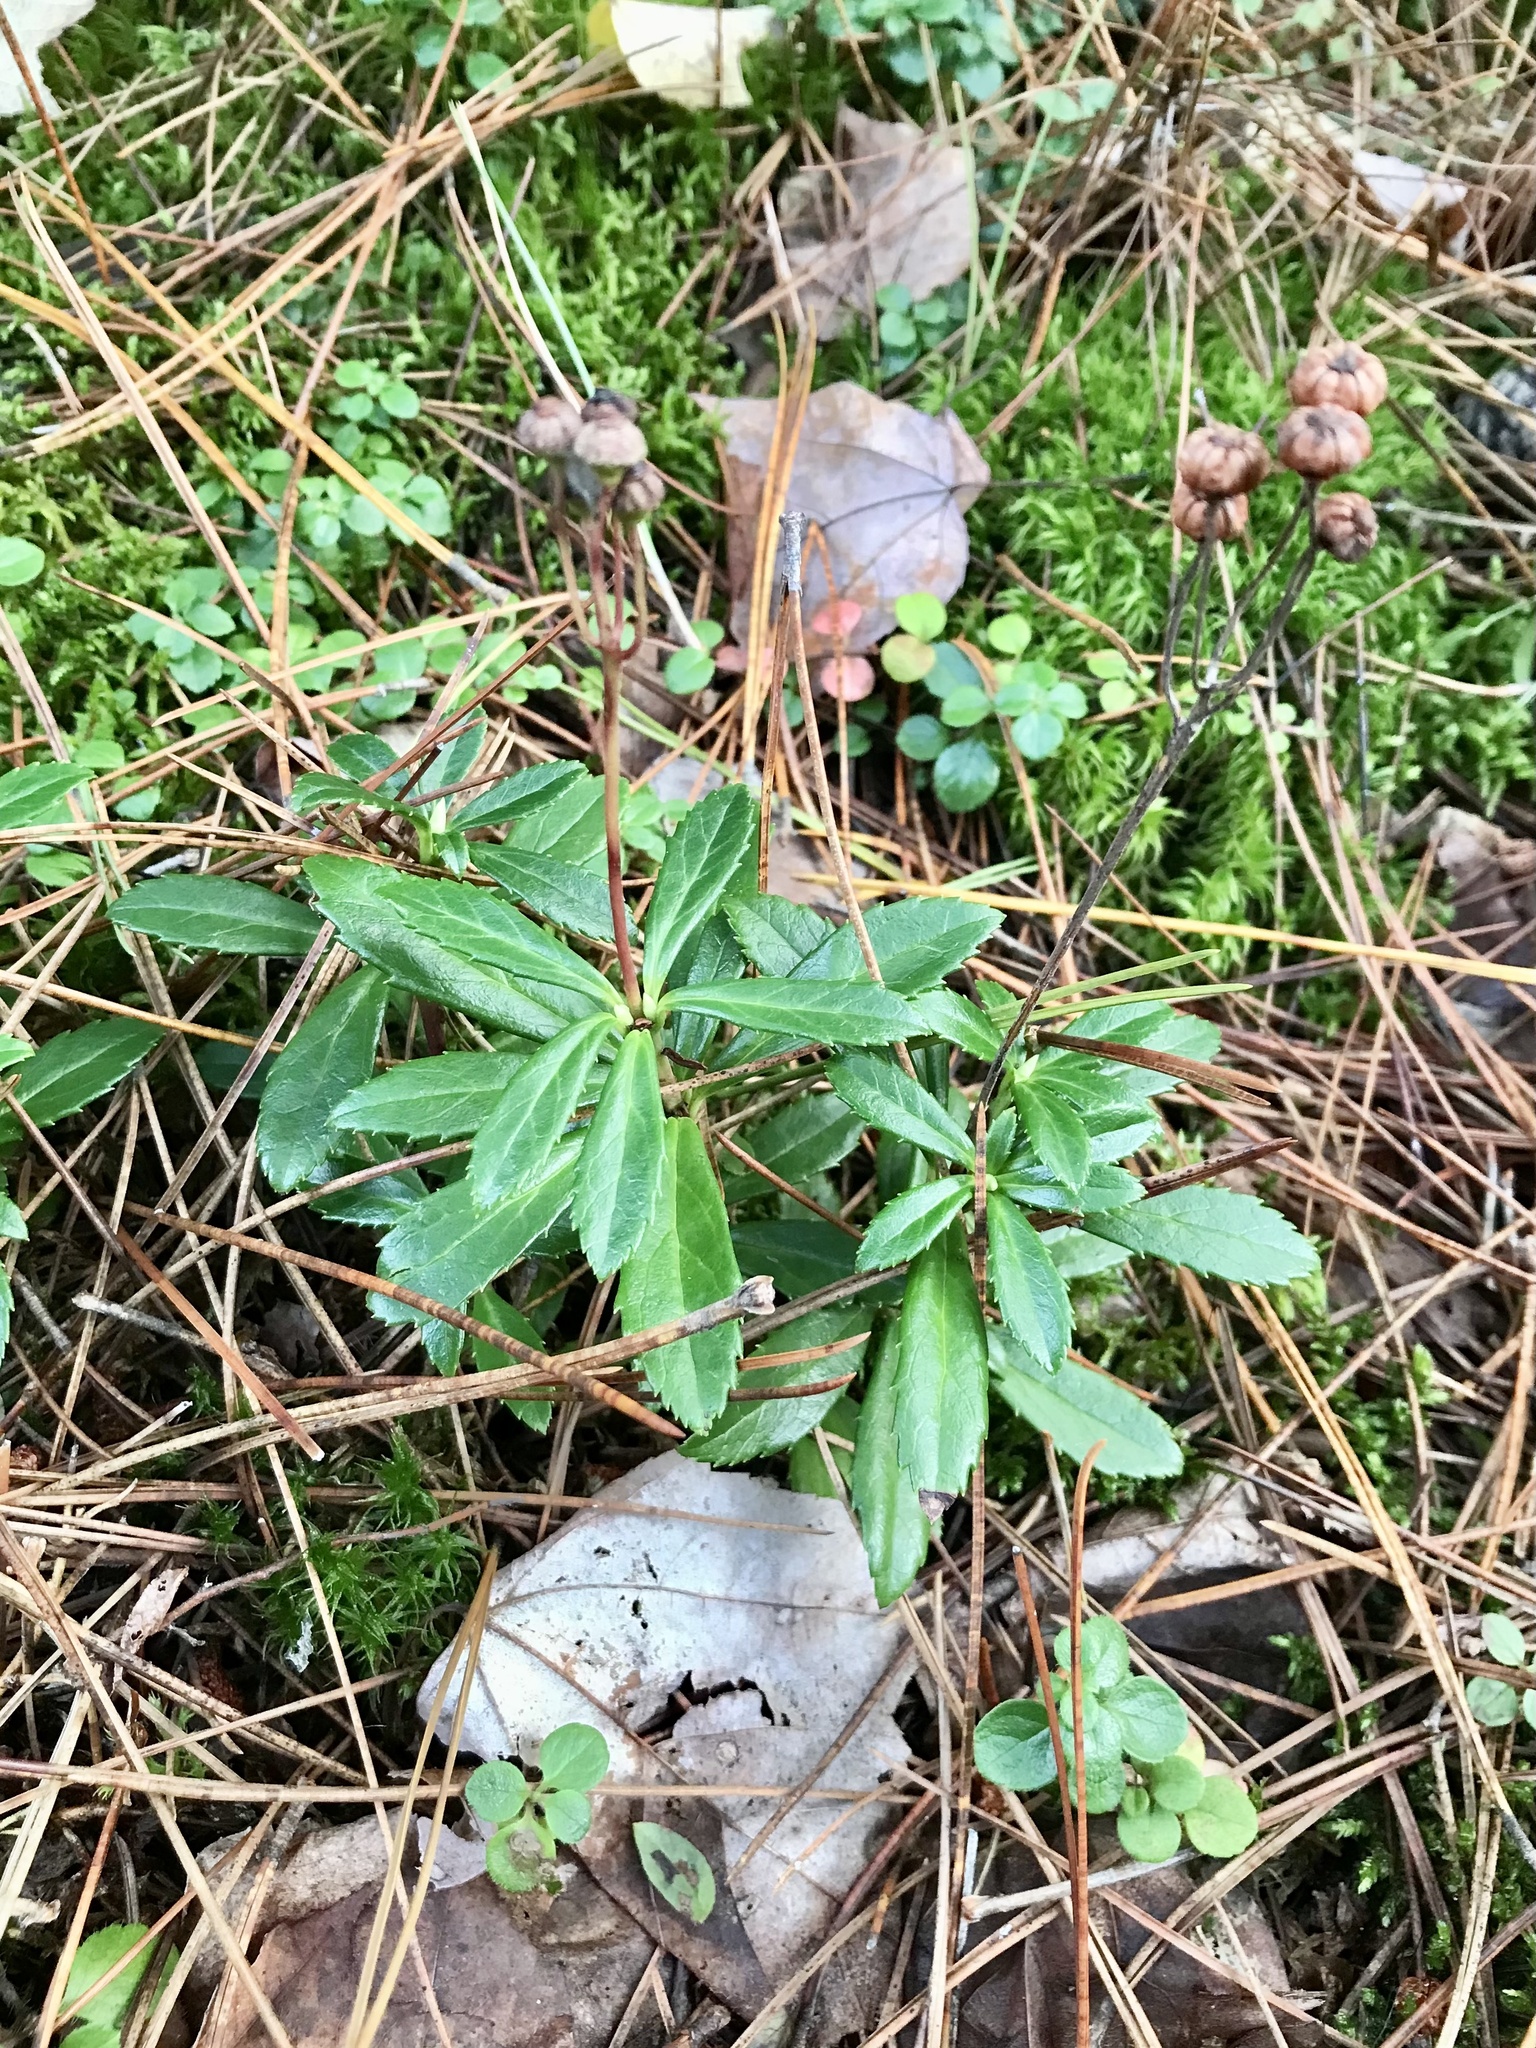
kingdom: Plantae
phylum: Tracheophyta
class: Magnoliopsida
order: Ericales
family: Ericaceae
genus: Chimaphila
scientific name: Chimaphila umbellata
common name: Pipsissewa
